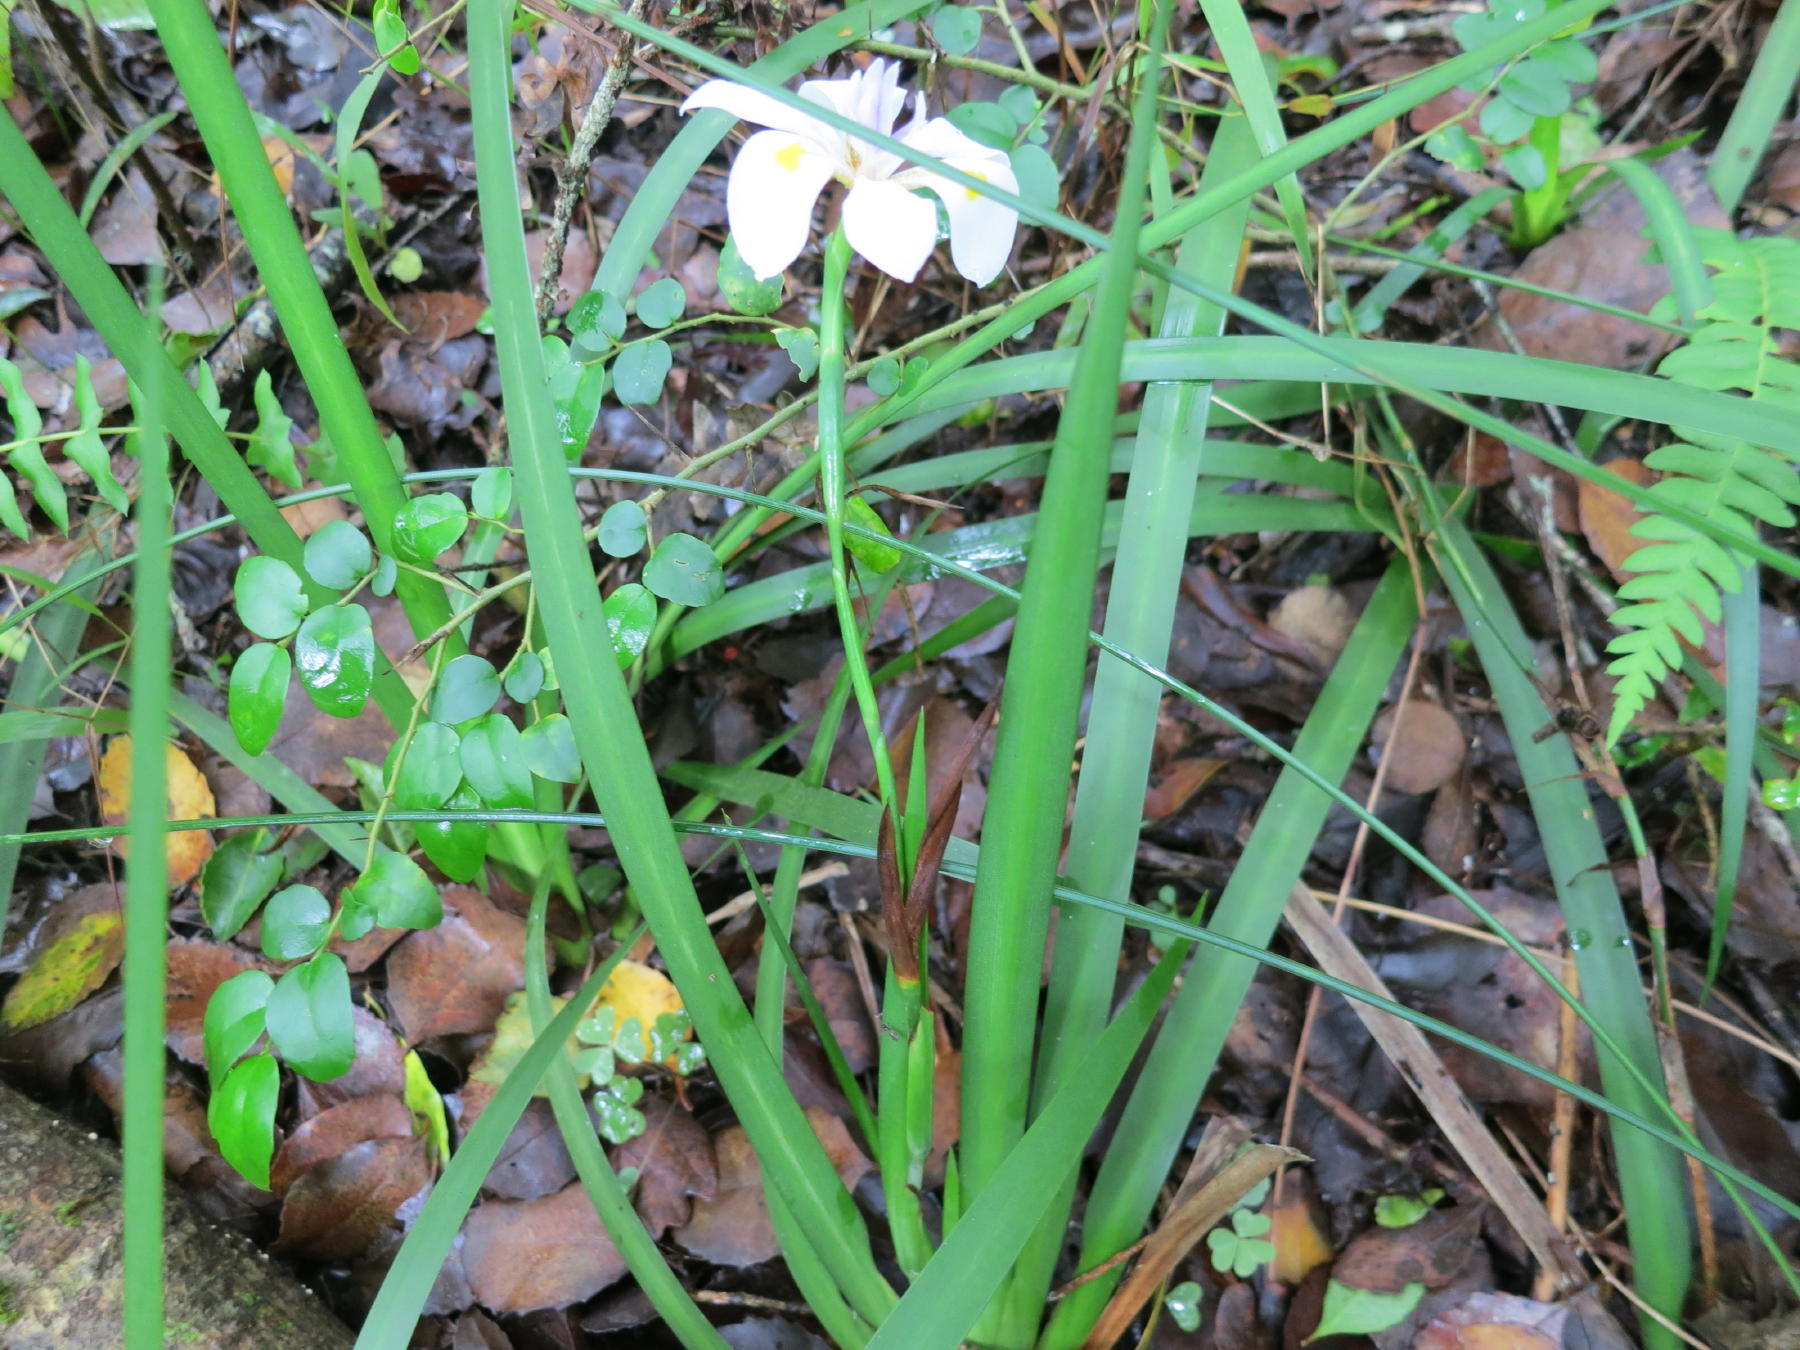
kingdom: Plantae
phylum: Tracheophyta
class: Liliopsida
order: Asparagales
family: Iridaceae
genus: Dietes
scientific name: Dietes iridioides
